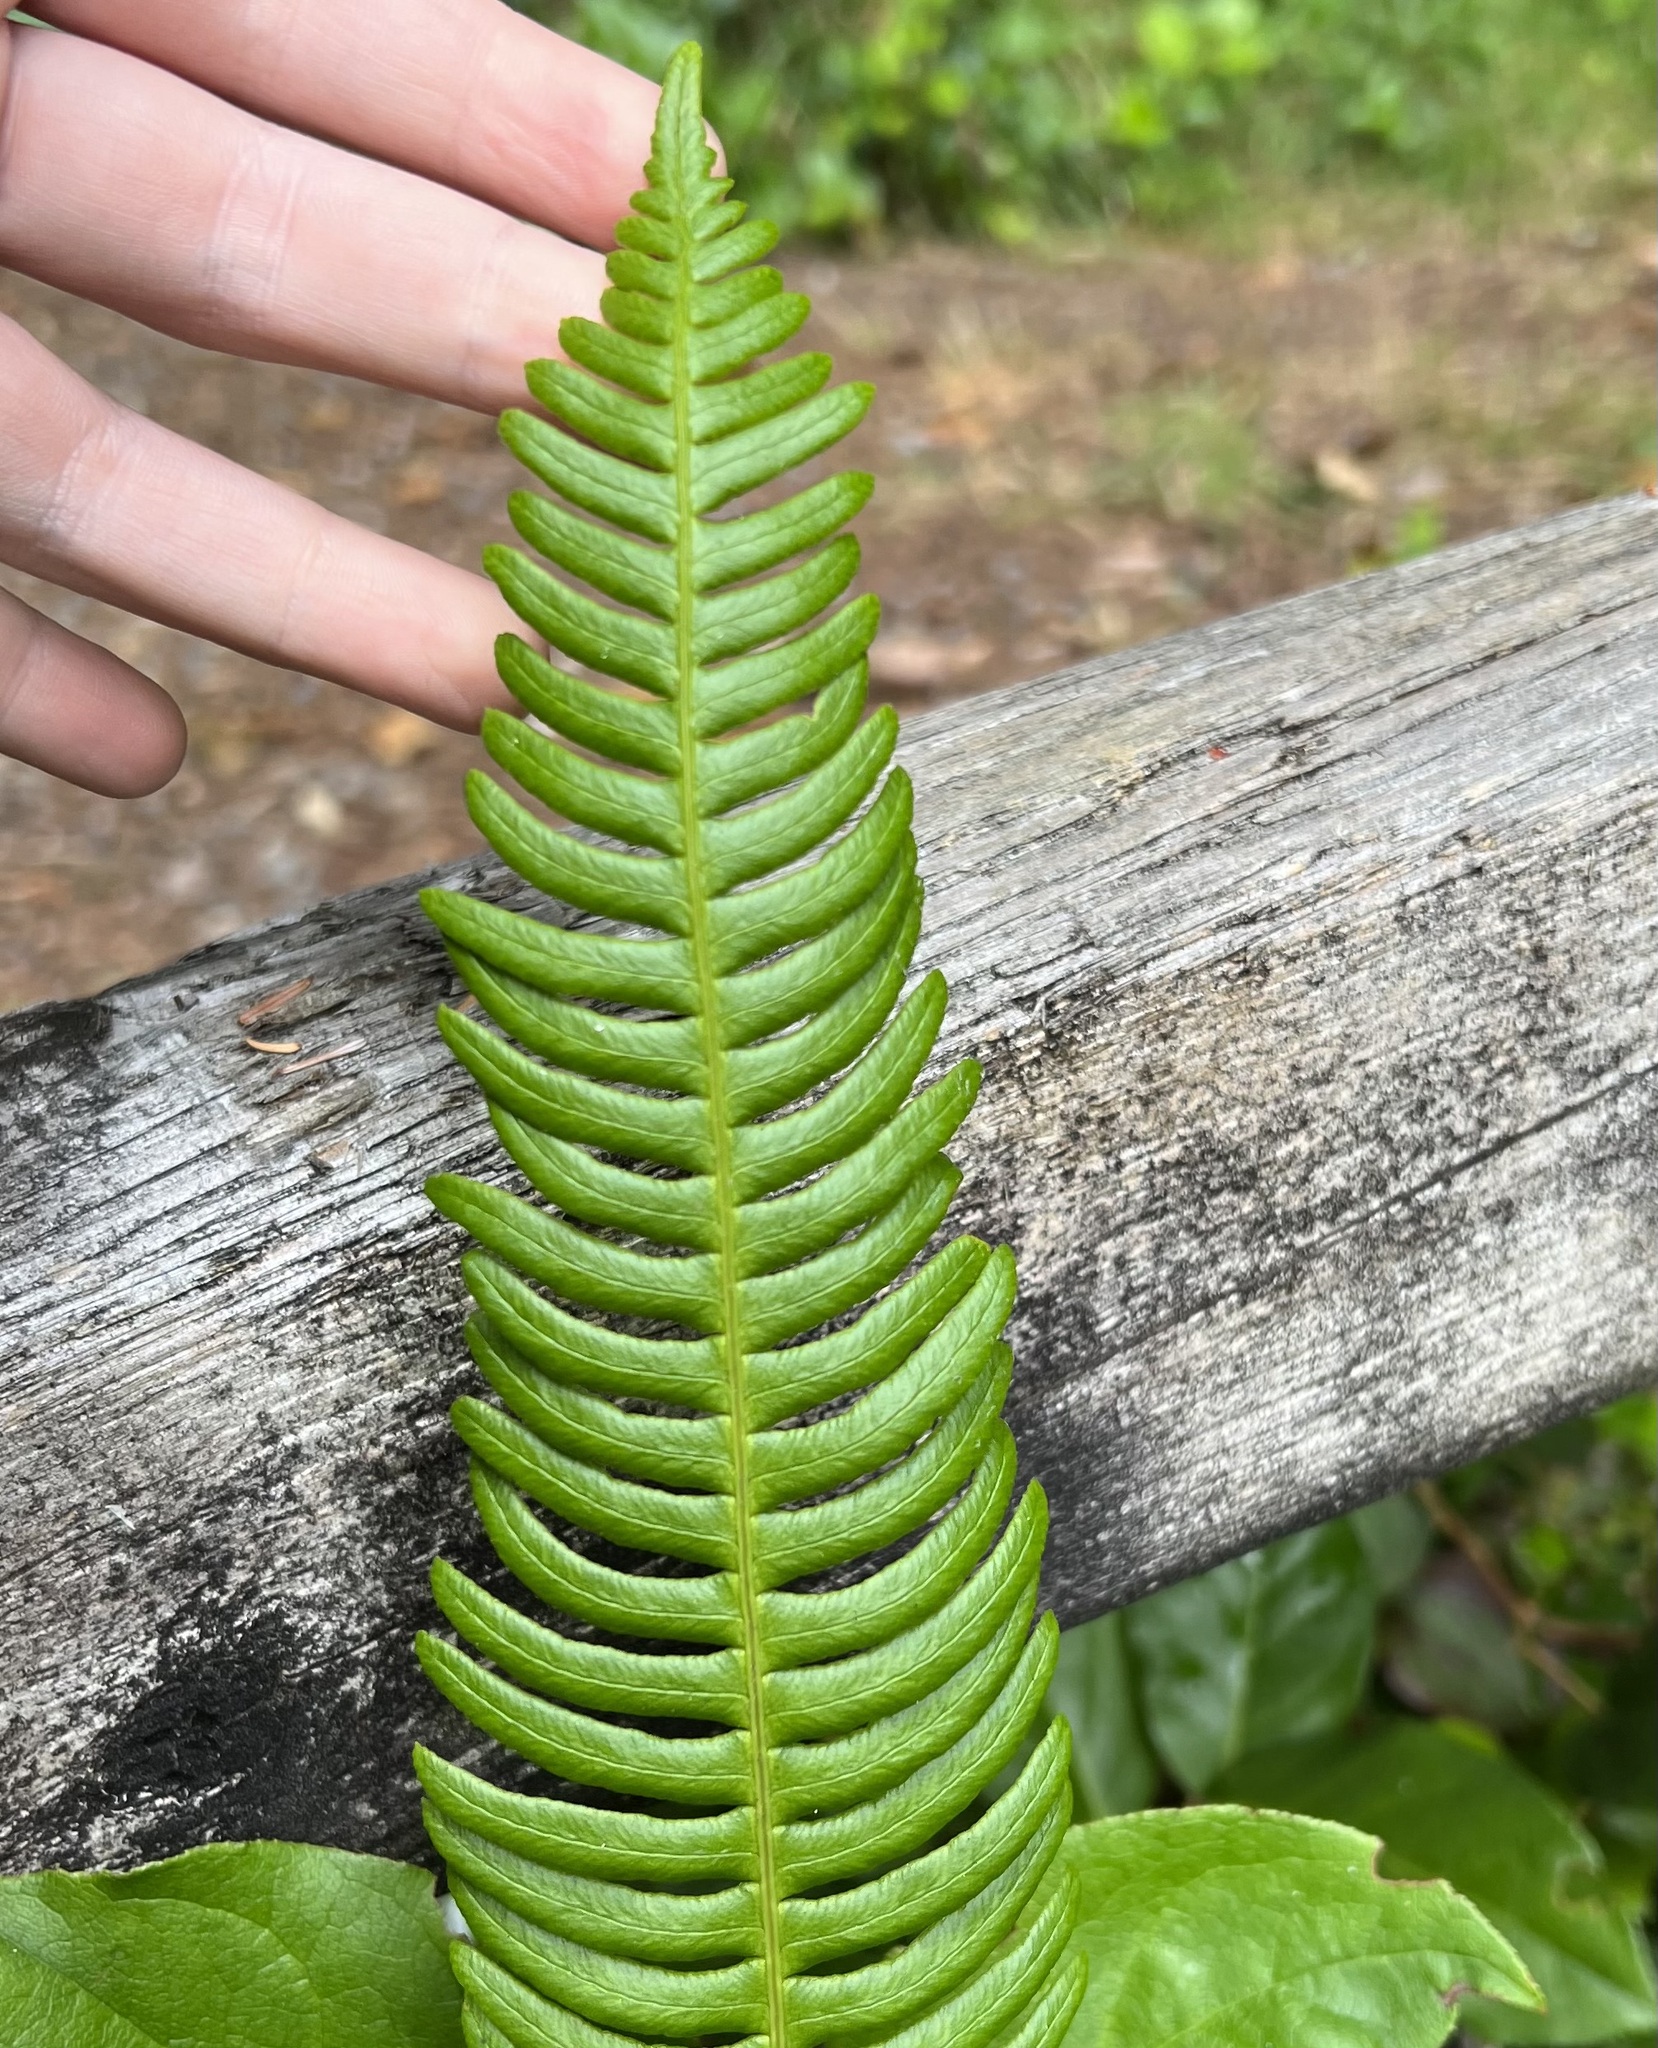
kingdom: Plantae
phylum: Tracheophyta
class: Polypodiopsida
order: Polypodiales
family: Blechnaceae
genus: Struthiopteris
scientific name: Struthiopteris spicant
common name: Deer fern
